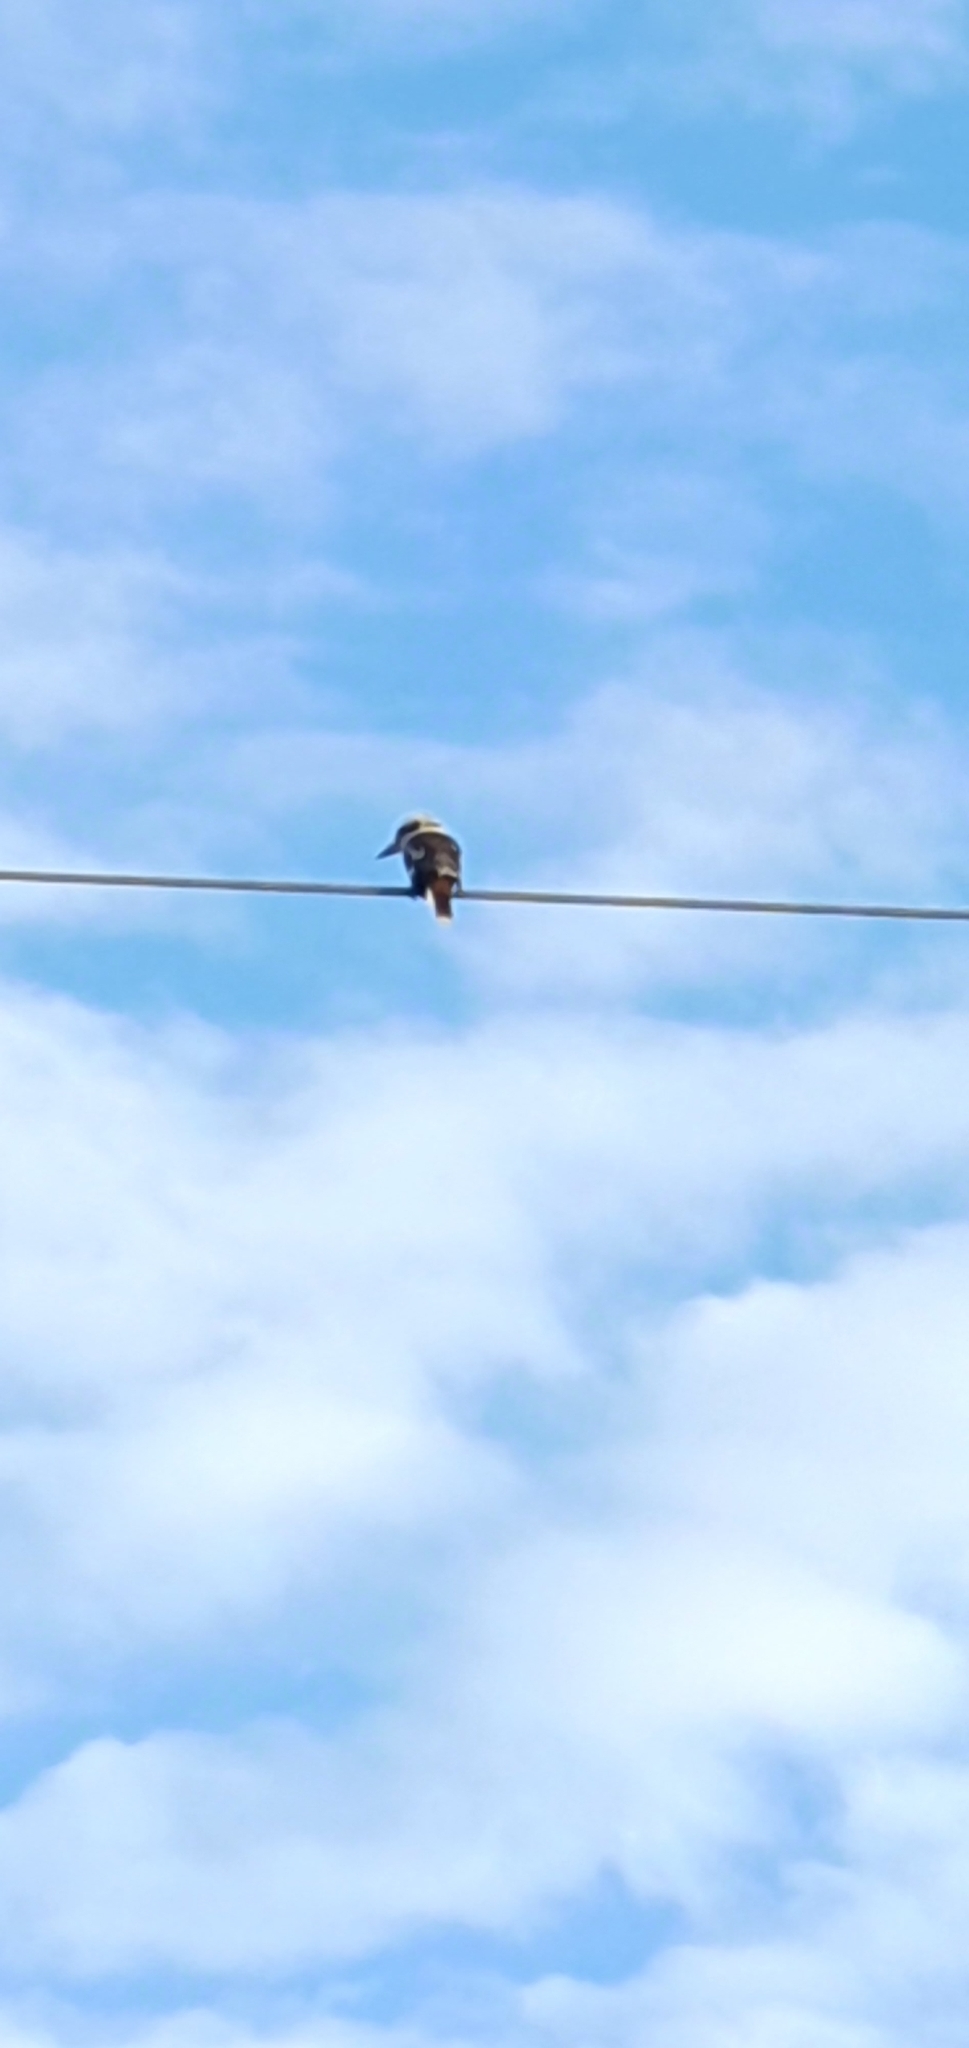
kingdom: Animalia
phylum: Chordata
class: Aves
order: Coraciiformes
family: Alcedinidae
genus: Dacelo
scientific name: Dacelo novaeguineae
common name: Laughing kookaburra
